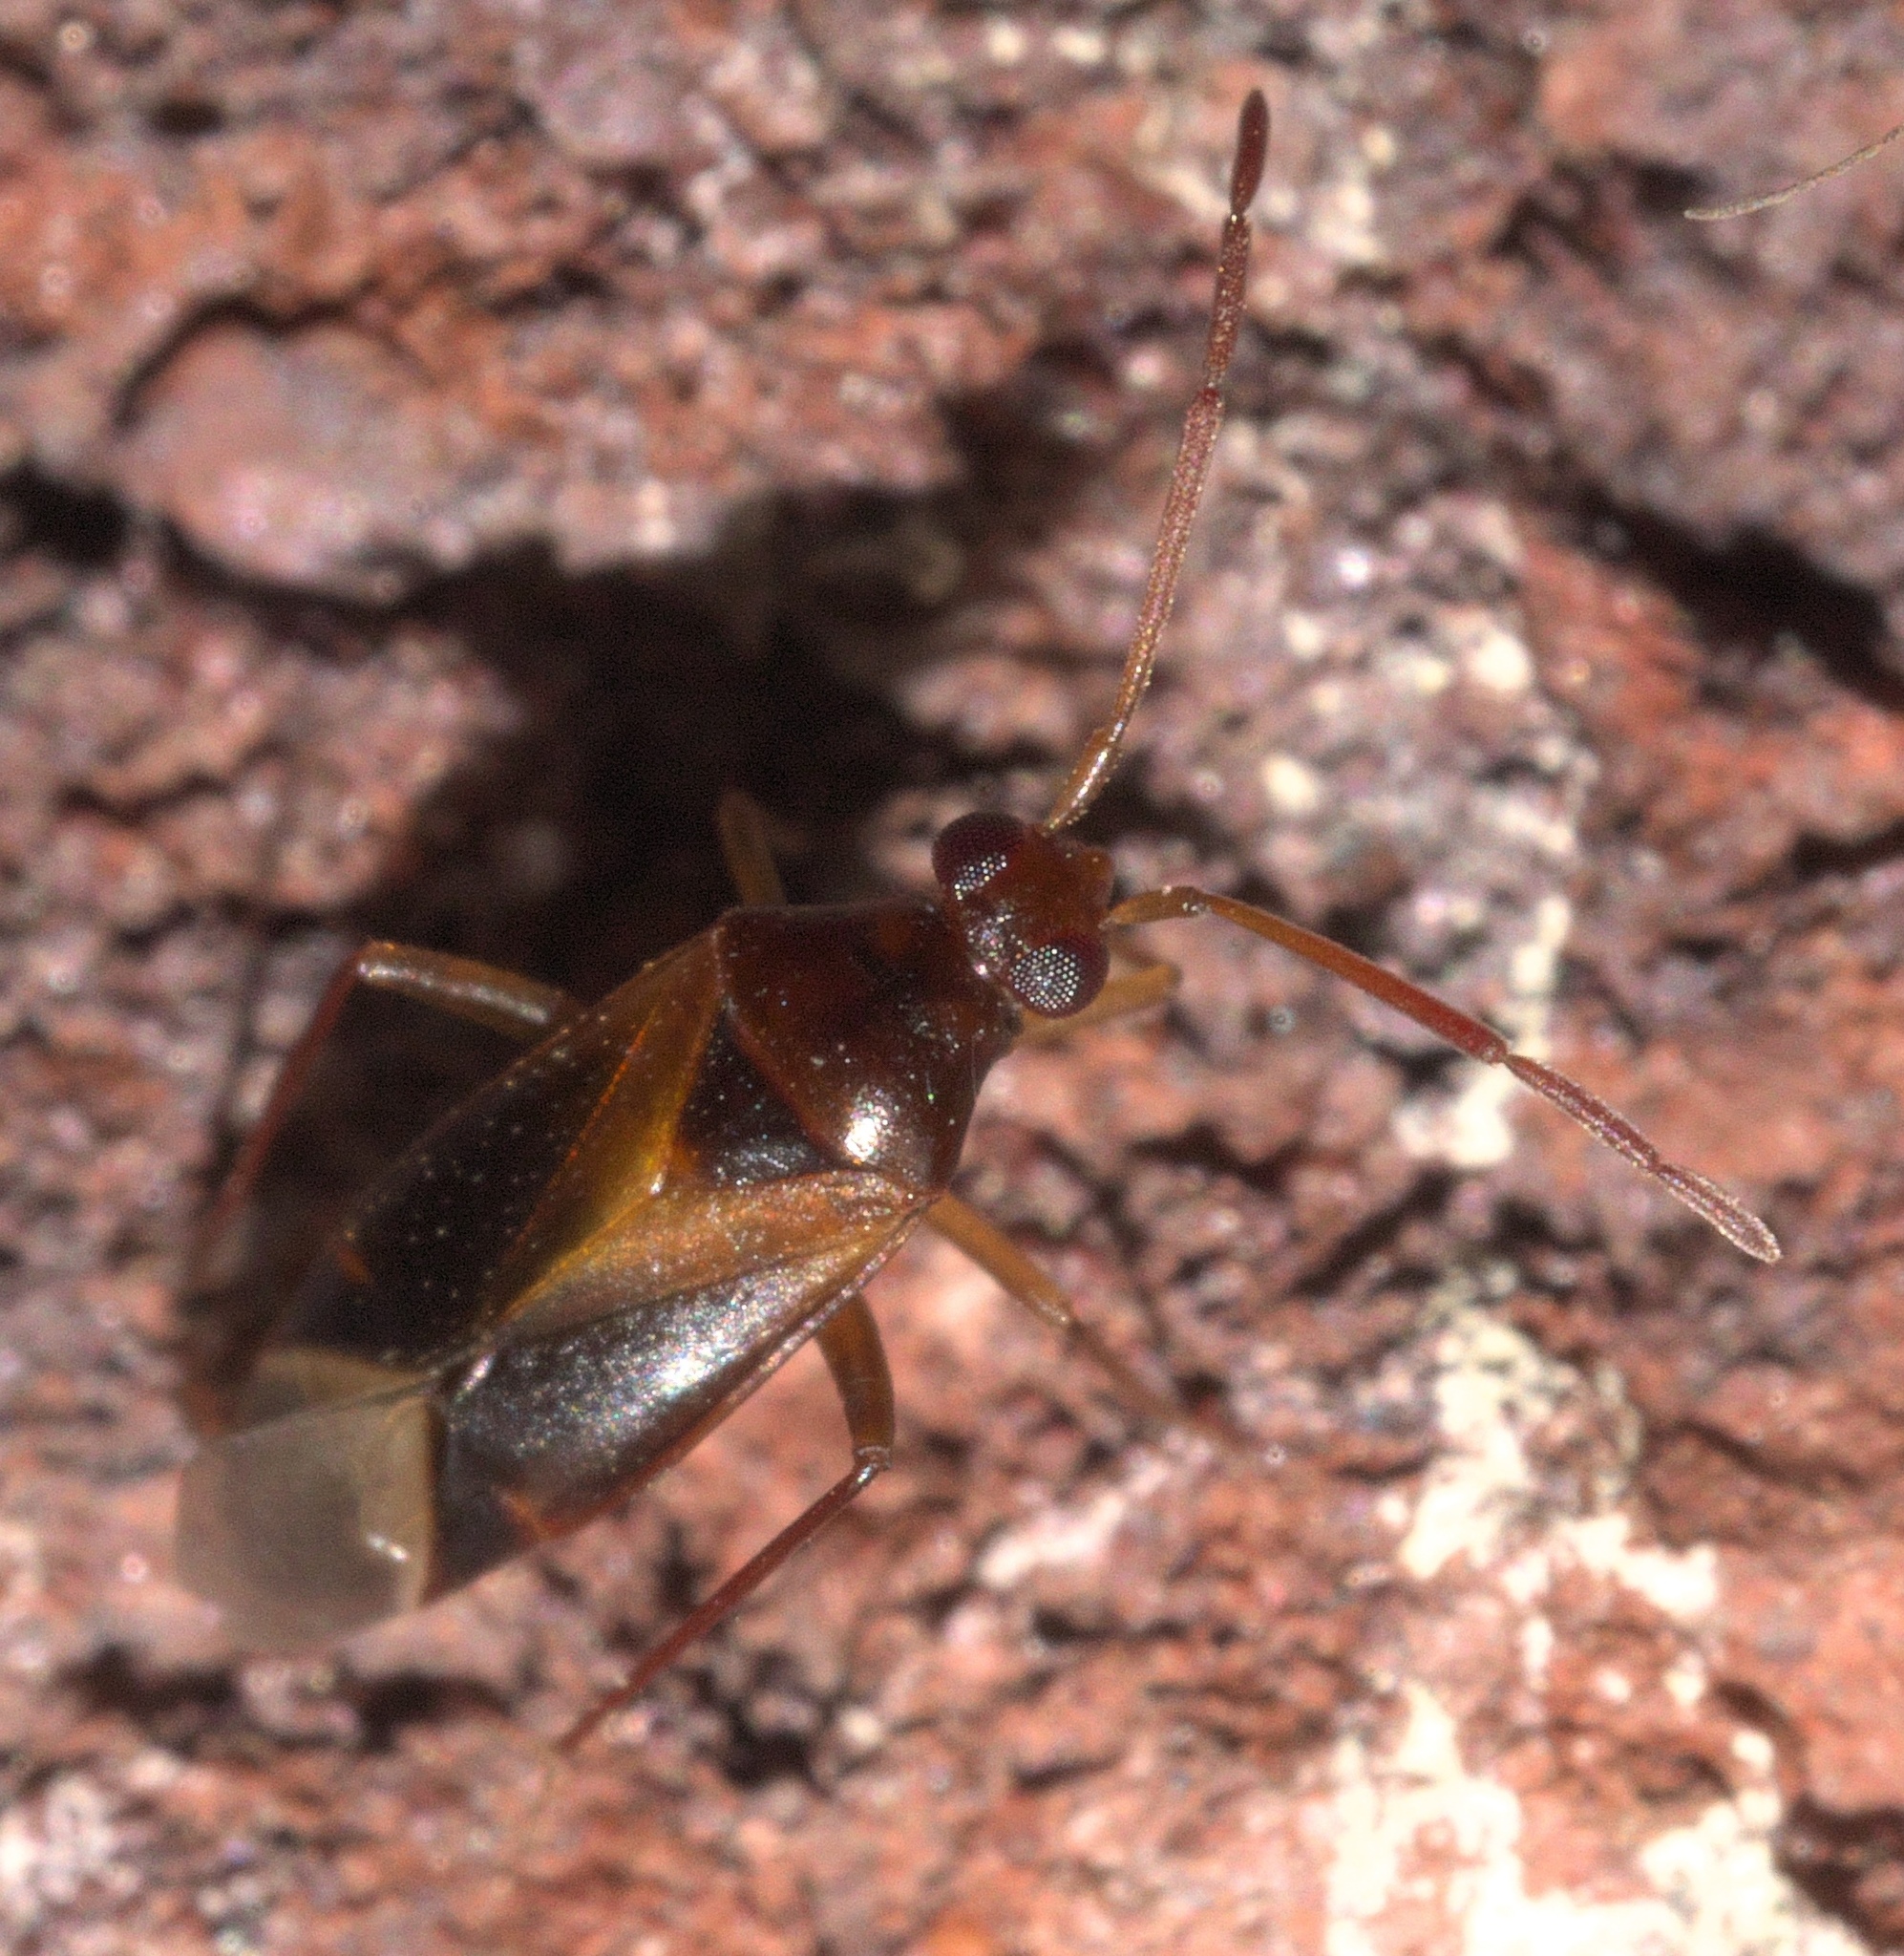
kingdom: Animalia
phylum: Arthropoda
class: Insecta
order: Hemiptera
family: Miridae
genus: Ceratocapsus
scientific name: Ceratocapsus modestus
